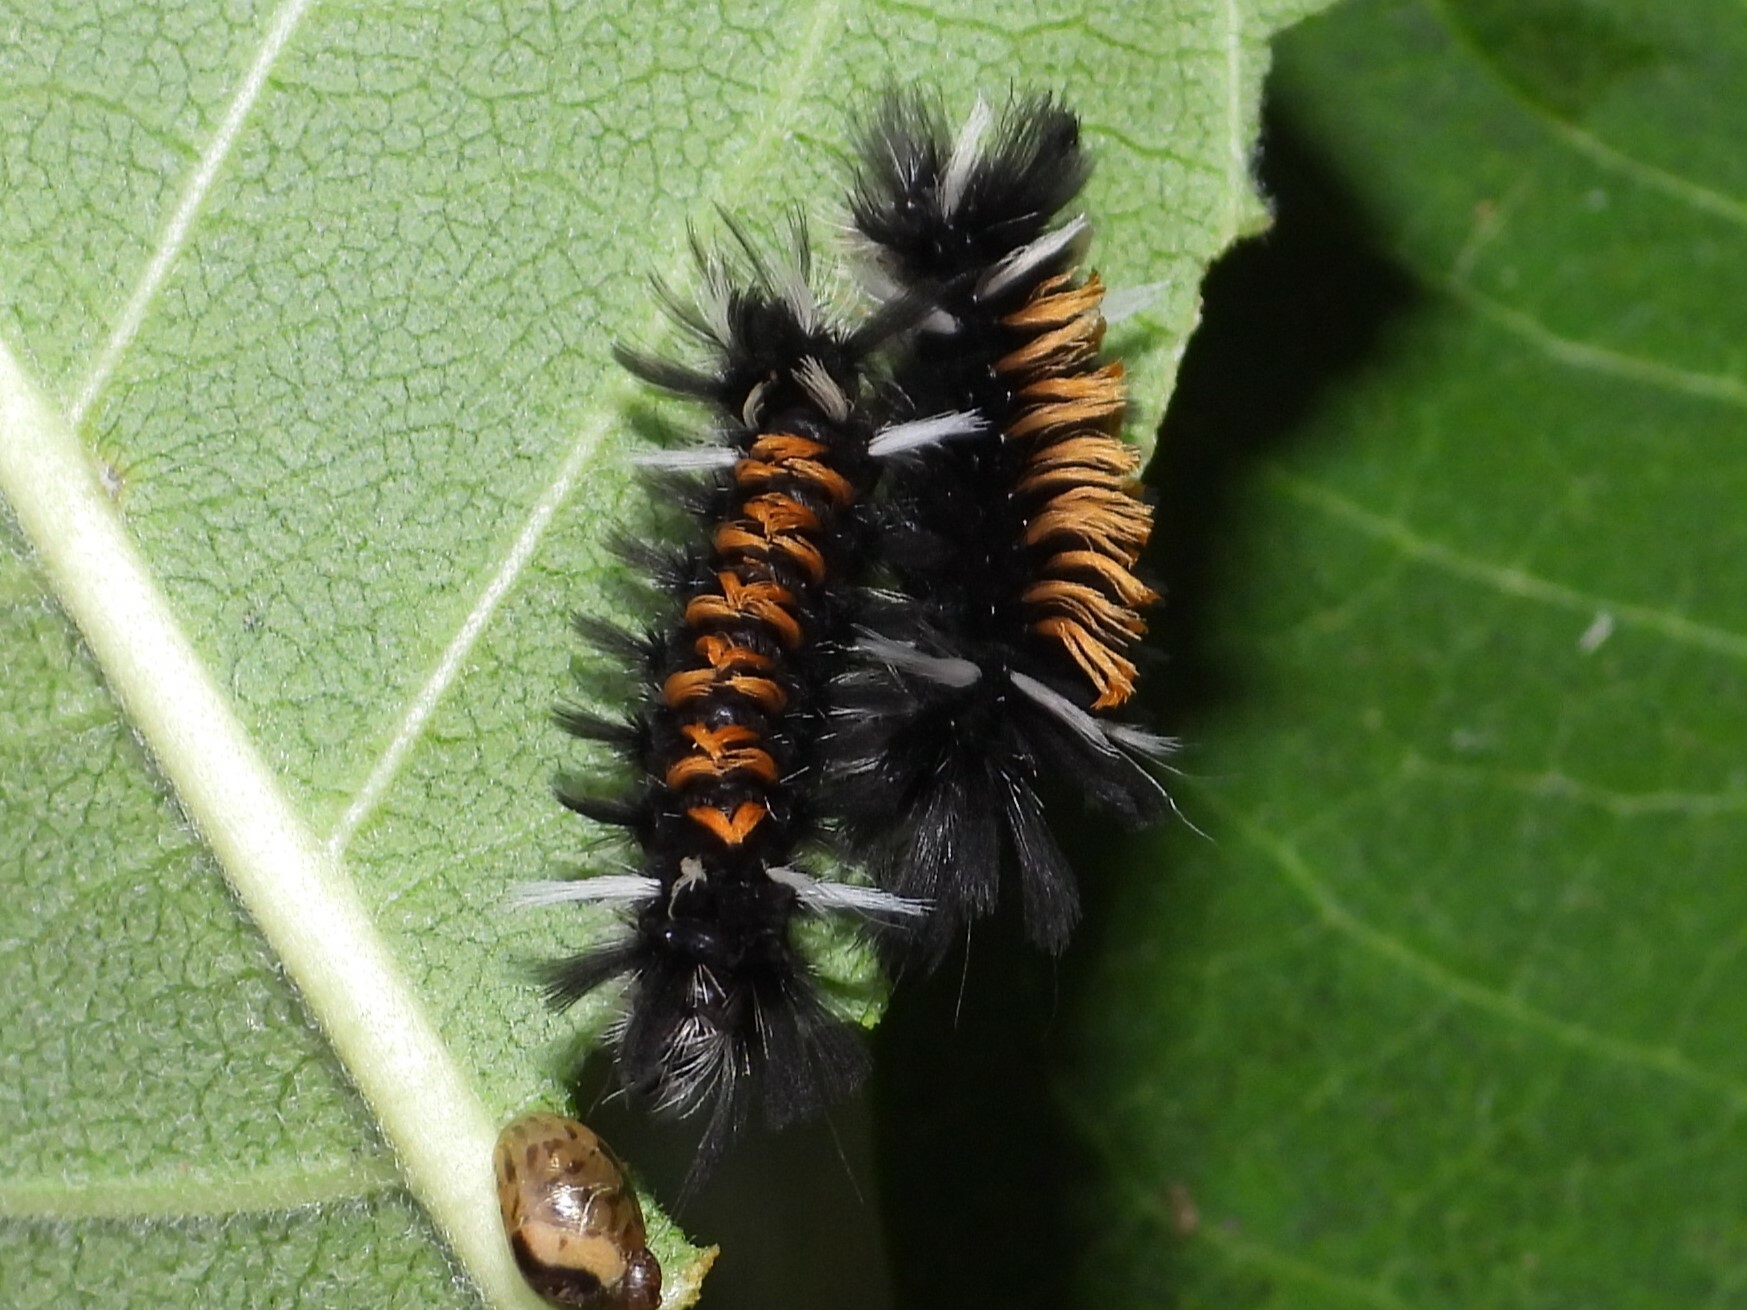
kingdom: Animalia
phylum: Arthropoda
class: Insecta
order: Lepidoptera
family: Erebidae
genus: Euchaetes
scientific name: Euchaetes egle
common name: Milkweed tussock moth
